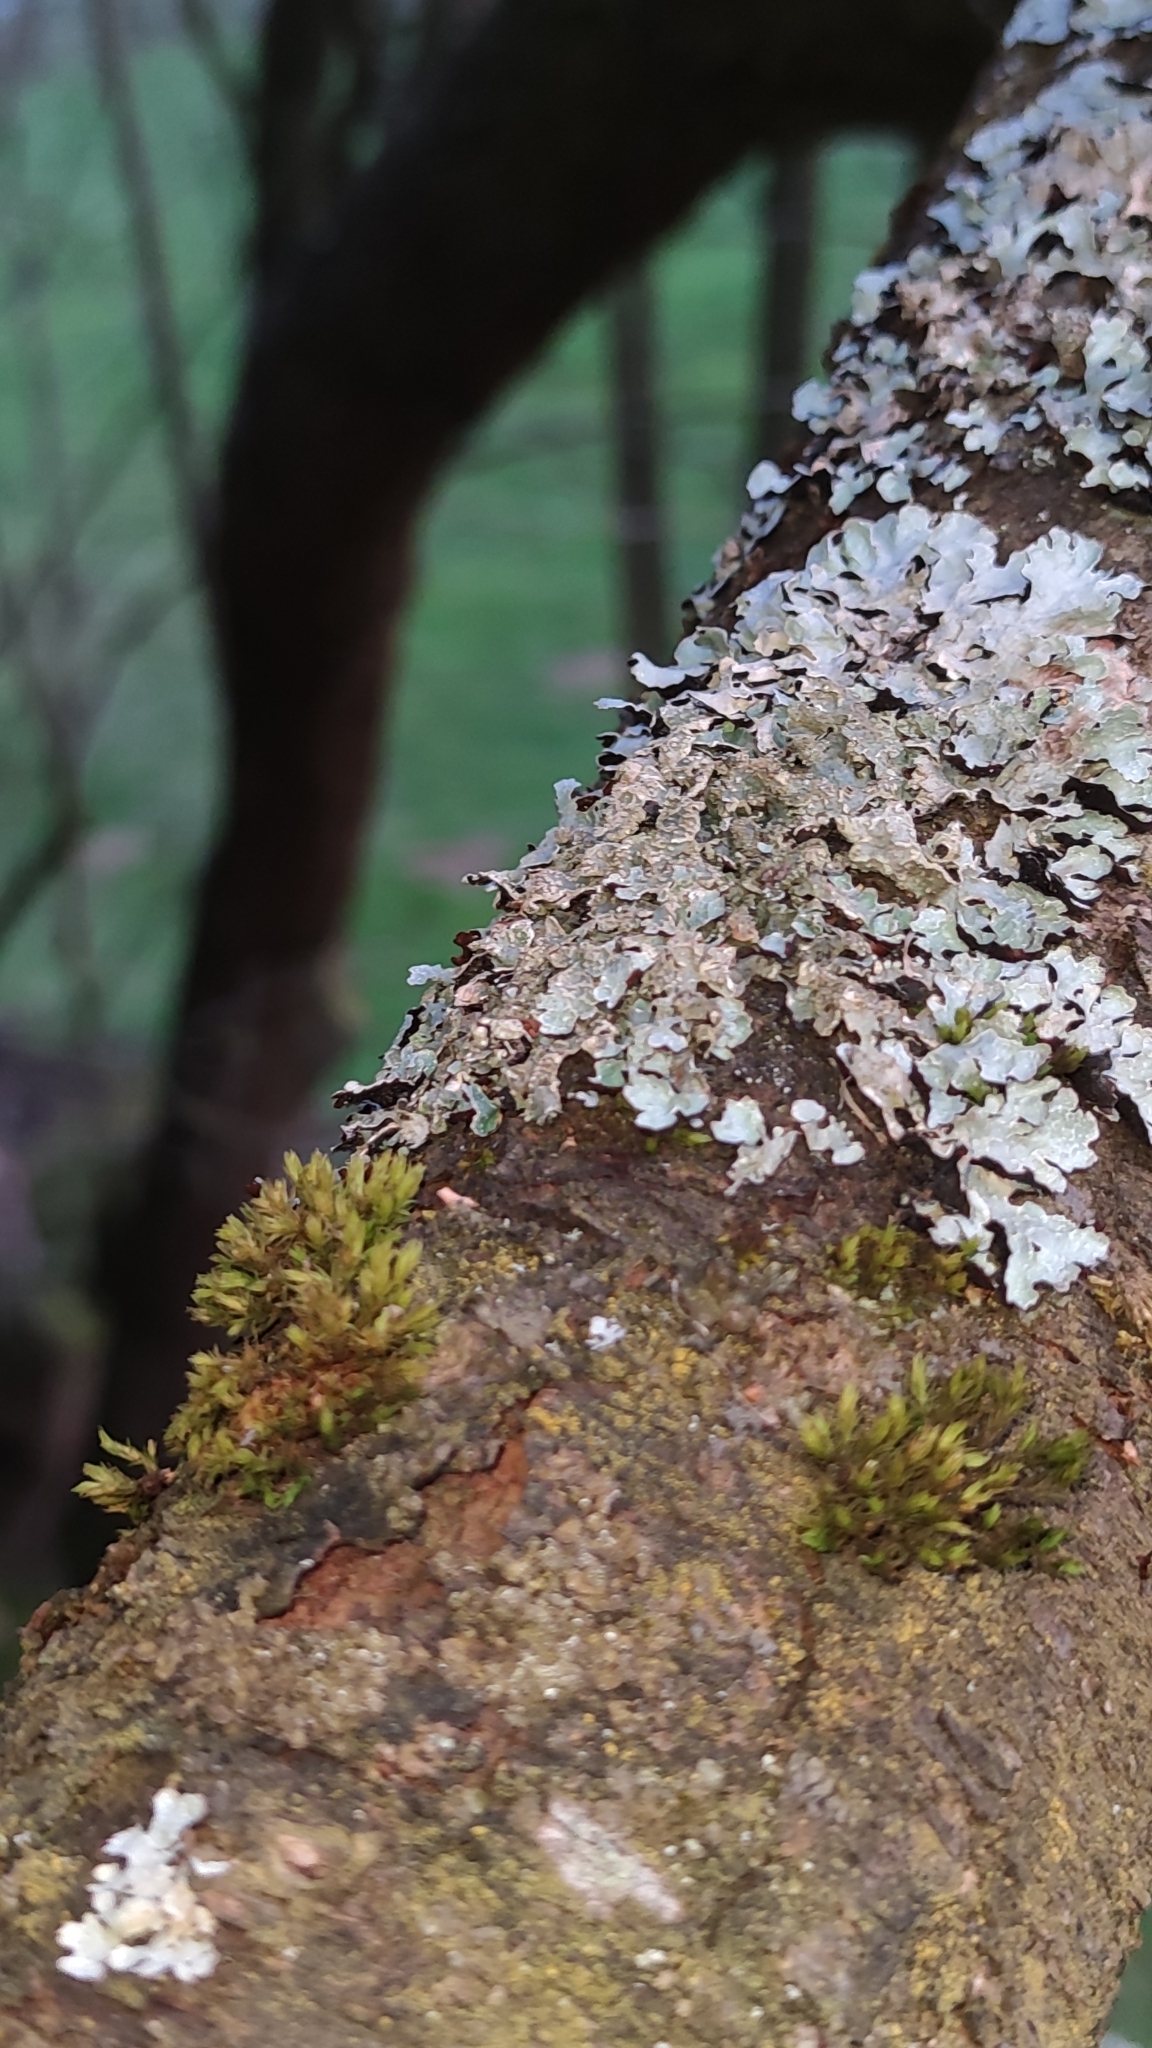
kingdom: Fungi
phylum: Ascomycota
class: Lecanoromycetes
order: Lecanorales
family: Parmeliaceae
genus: Parmelia
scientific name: Parmelia sulcata
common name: Netted shield lichen
